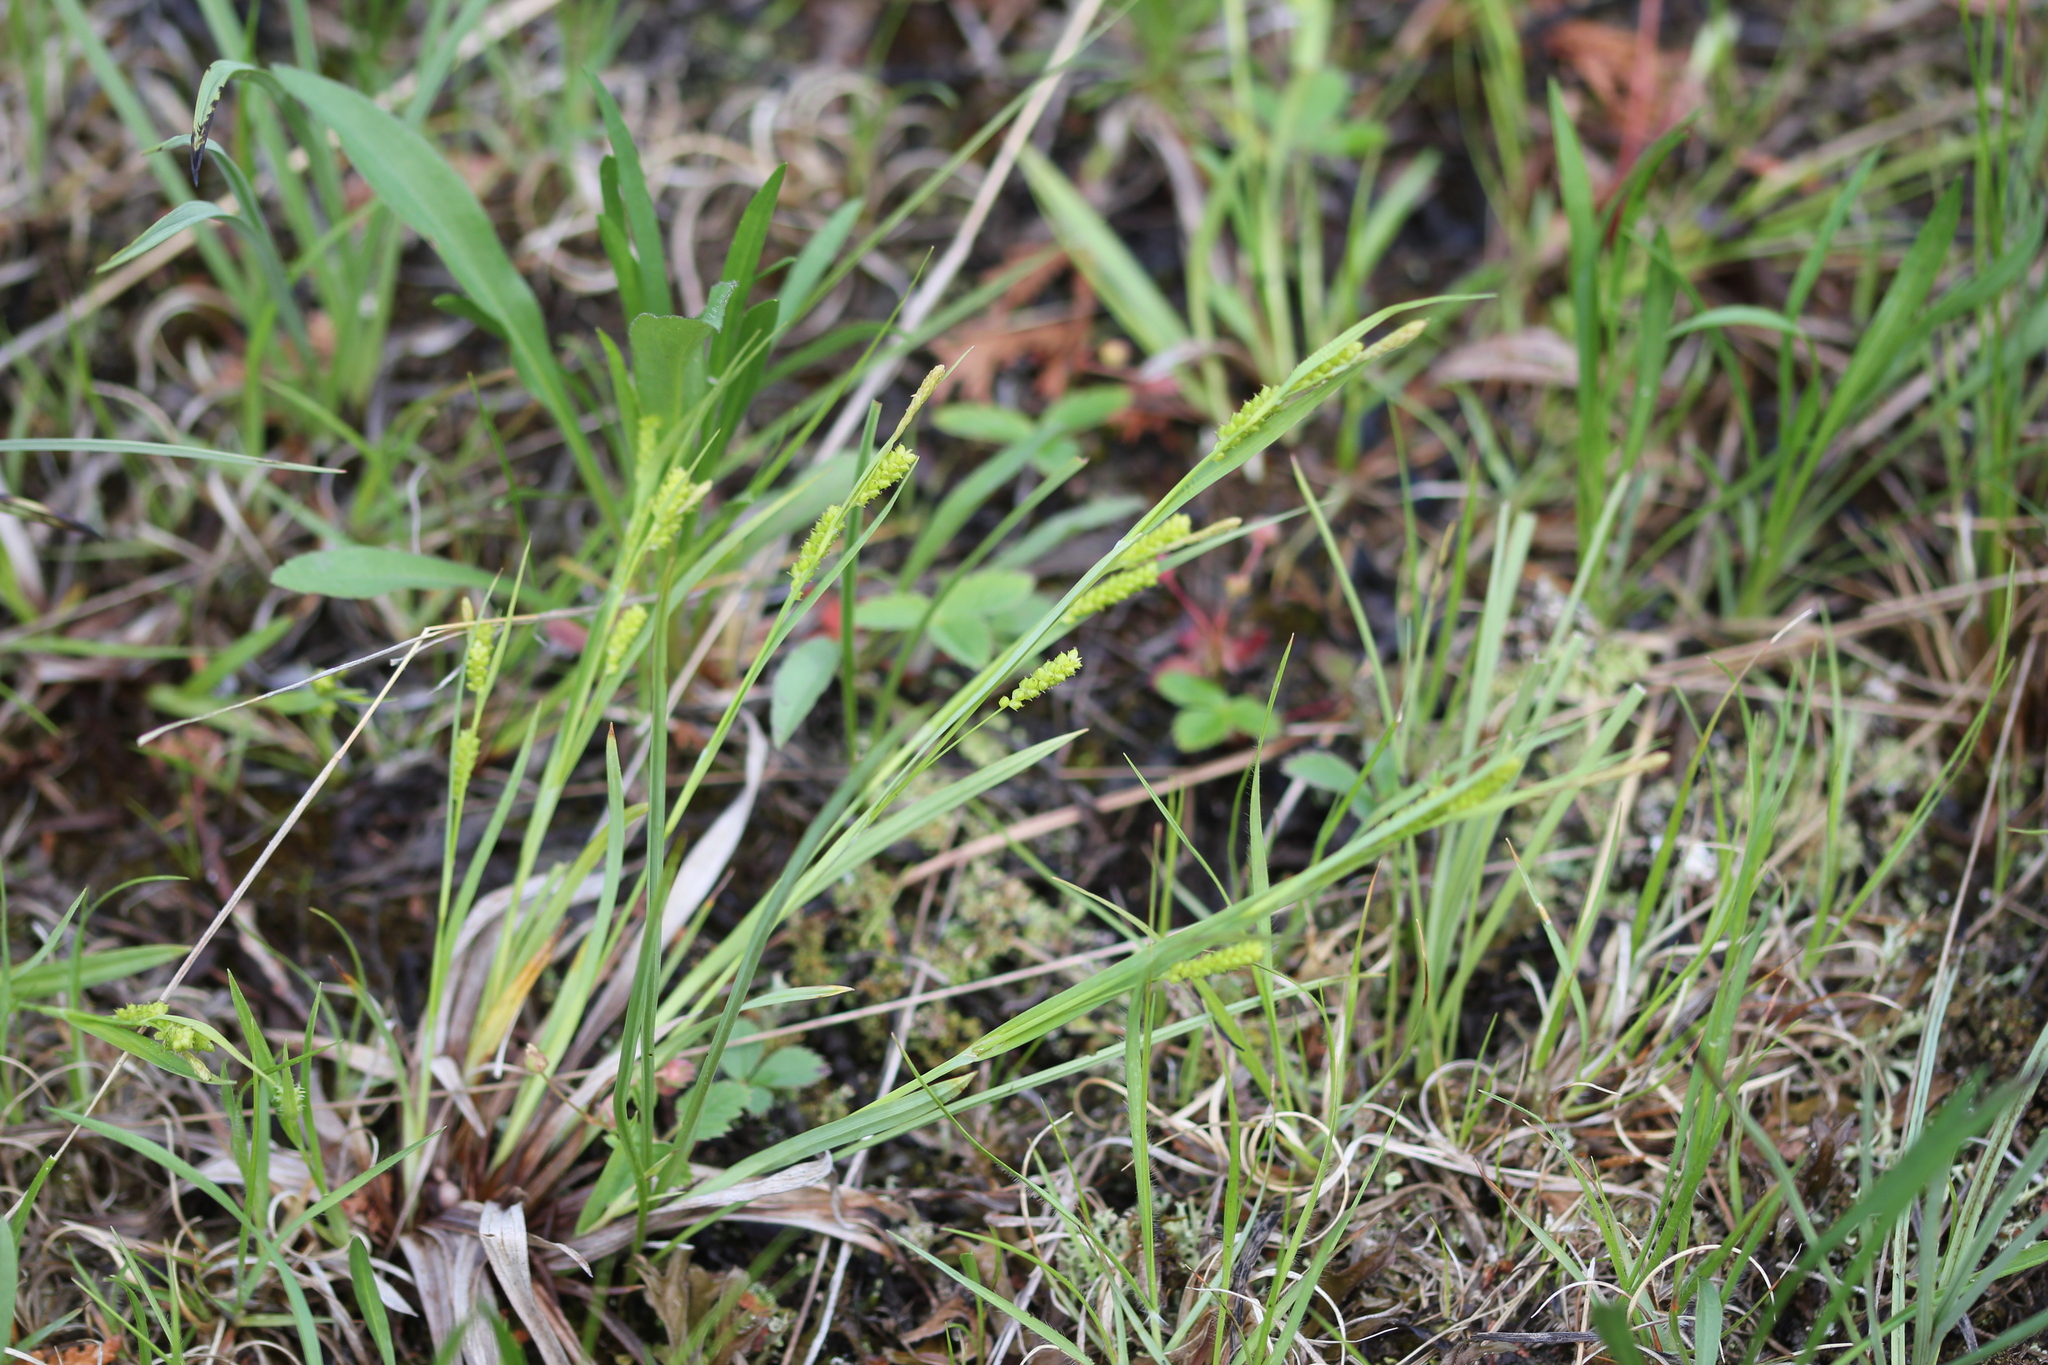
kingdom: Plantae
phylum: Tracheophyta
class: Liliopsida
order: Poales
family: Cyperaceae
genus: Carex
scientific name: Carex granularis
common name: Granular sedge
